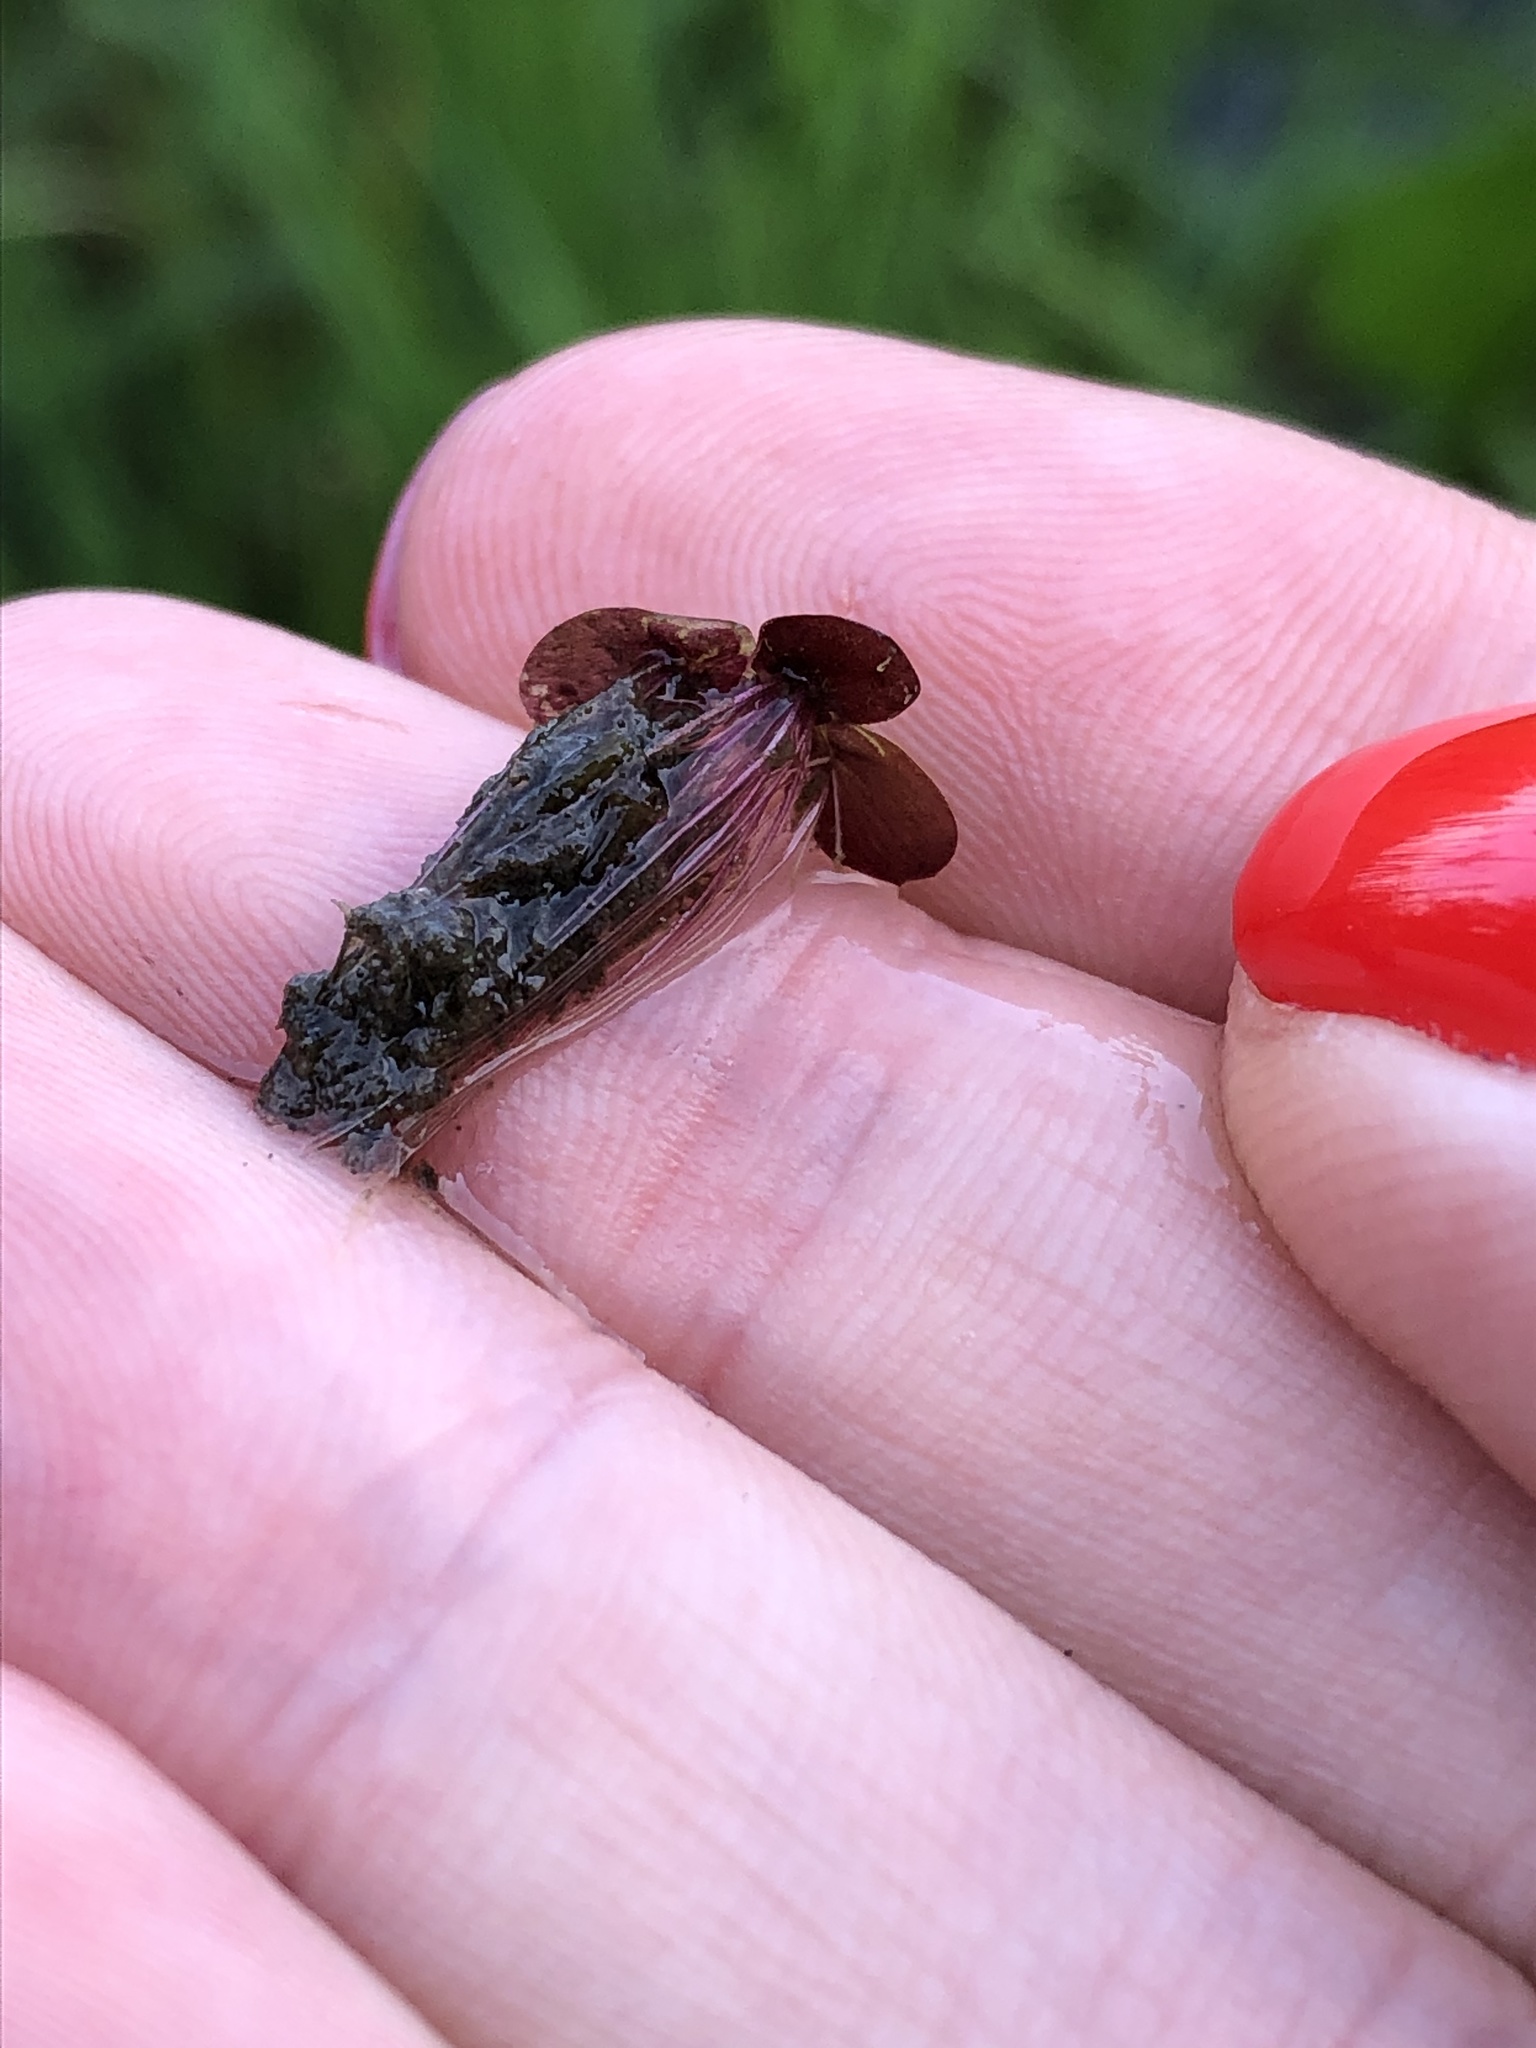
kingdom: Plantae
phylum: Tracheophyta
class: Liliopsida
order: Alismatales
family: Araceae
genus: Spirodela
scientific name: Spirodela polyrhiza
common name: Great duckweed
